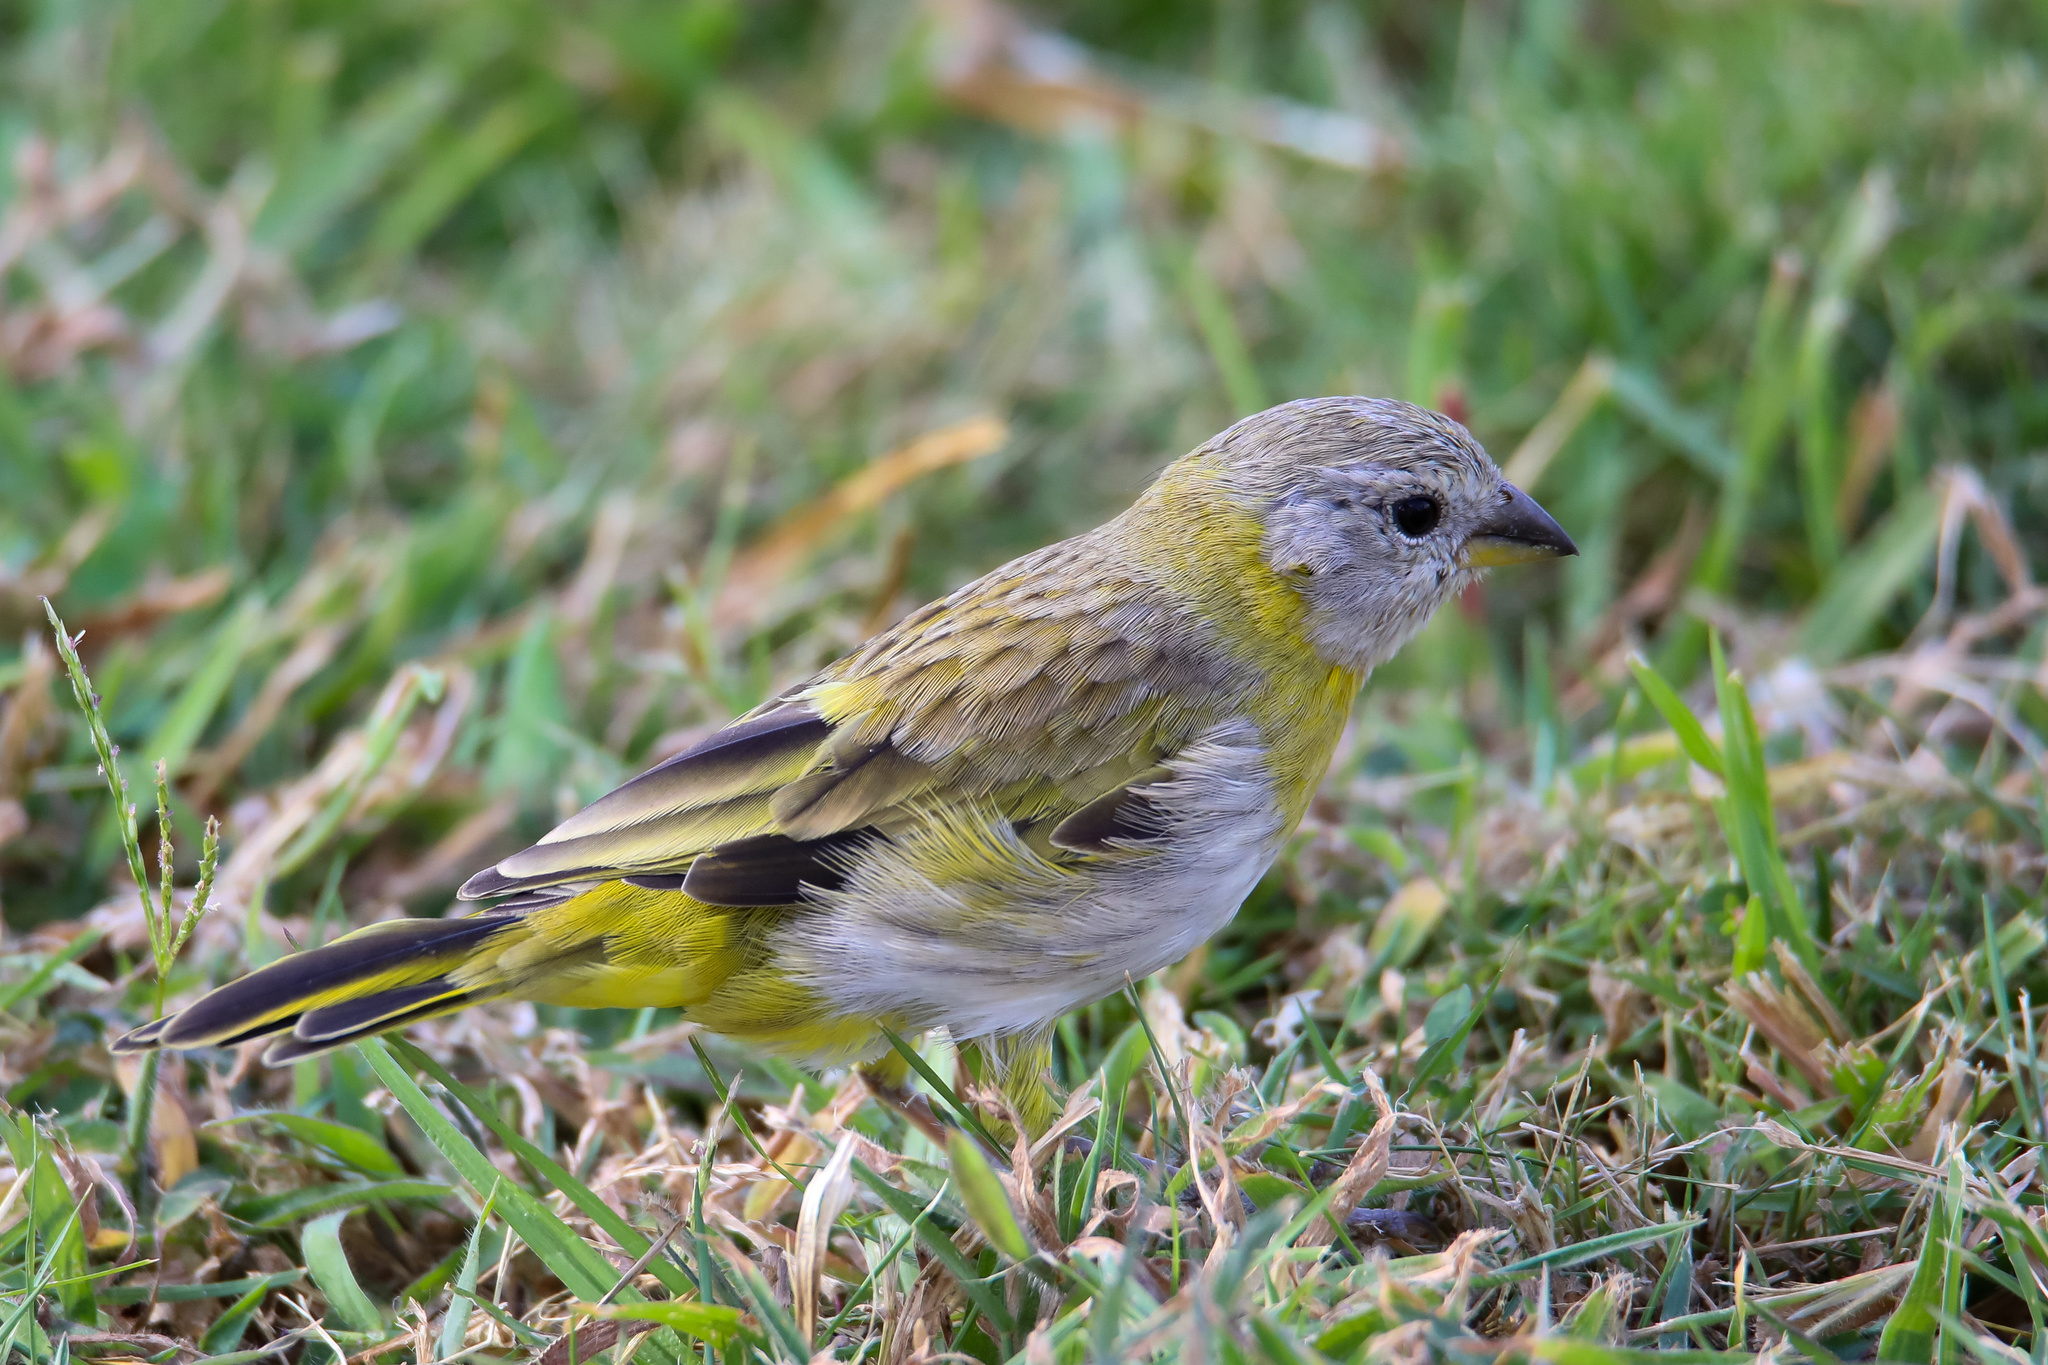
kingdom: Animalia
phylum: Chordata
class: Aves
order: Passeriformes
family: Thraupidae
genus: Sicalis
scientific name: Sicalis flaveola
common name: Saffron finch
